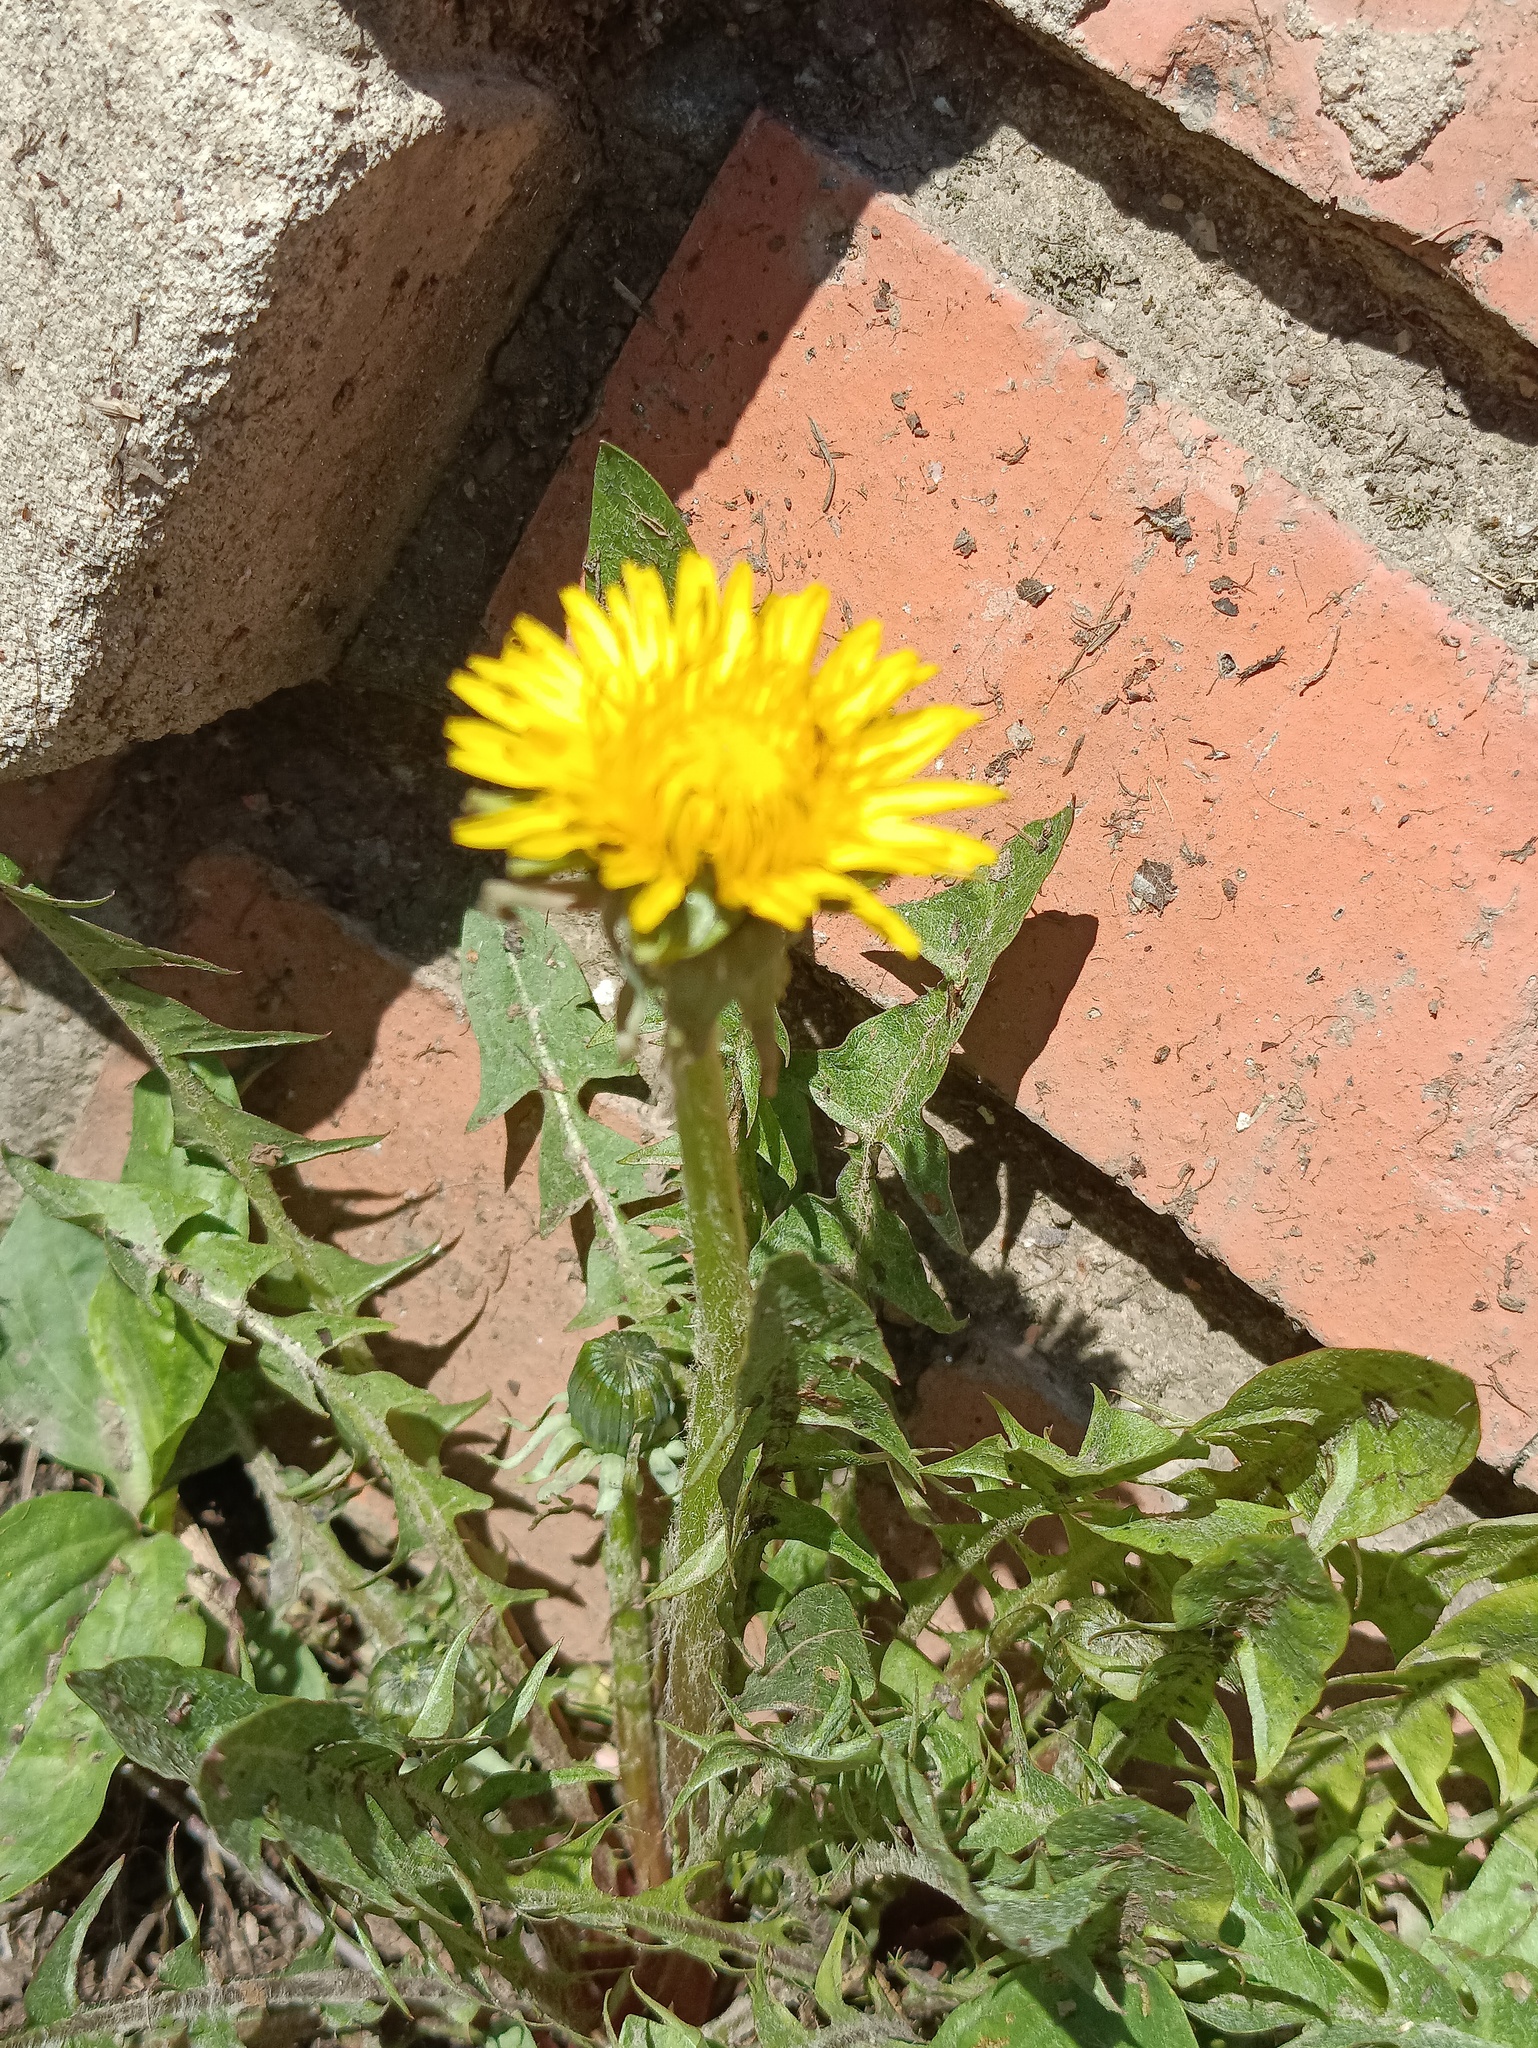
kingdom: Plantae
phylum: Tracheophyta
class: Magnoliopsida
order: Asterales
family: Asteraceae
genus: Taraxacum
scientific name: Taraxacum officinale
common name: Common dandelion
